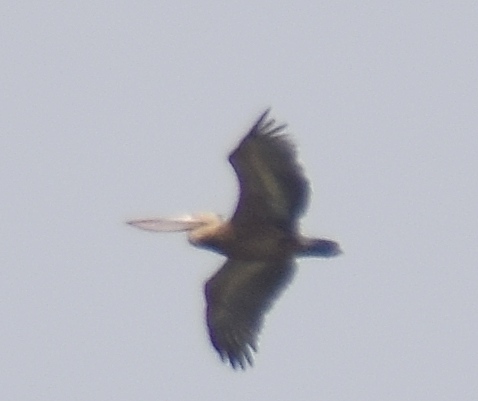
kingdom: Animalia
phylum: Chordata
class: Aves
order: Pelecaniformes
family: Pelecanidae
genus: Pelecanus
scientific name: Pelecanus philippensis
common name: Spot-billed pelican
